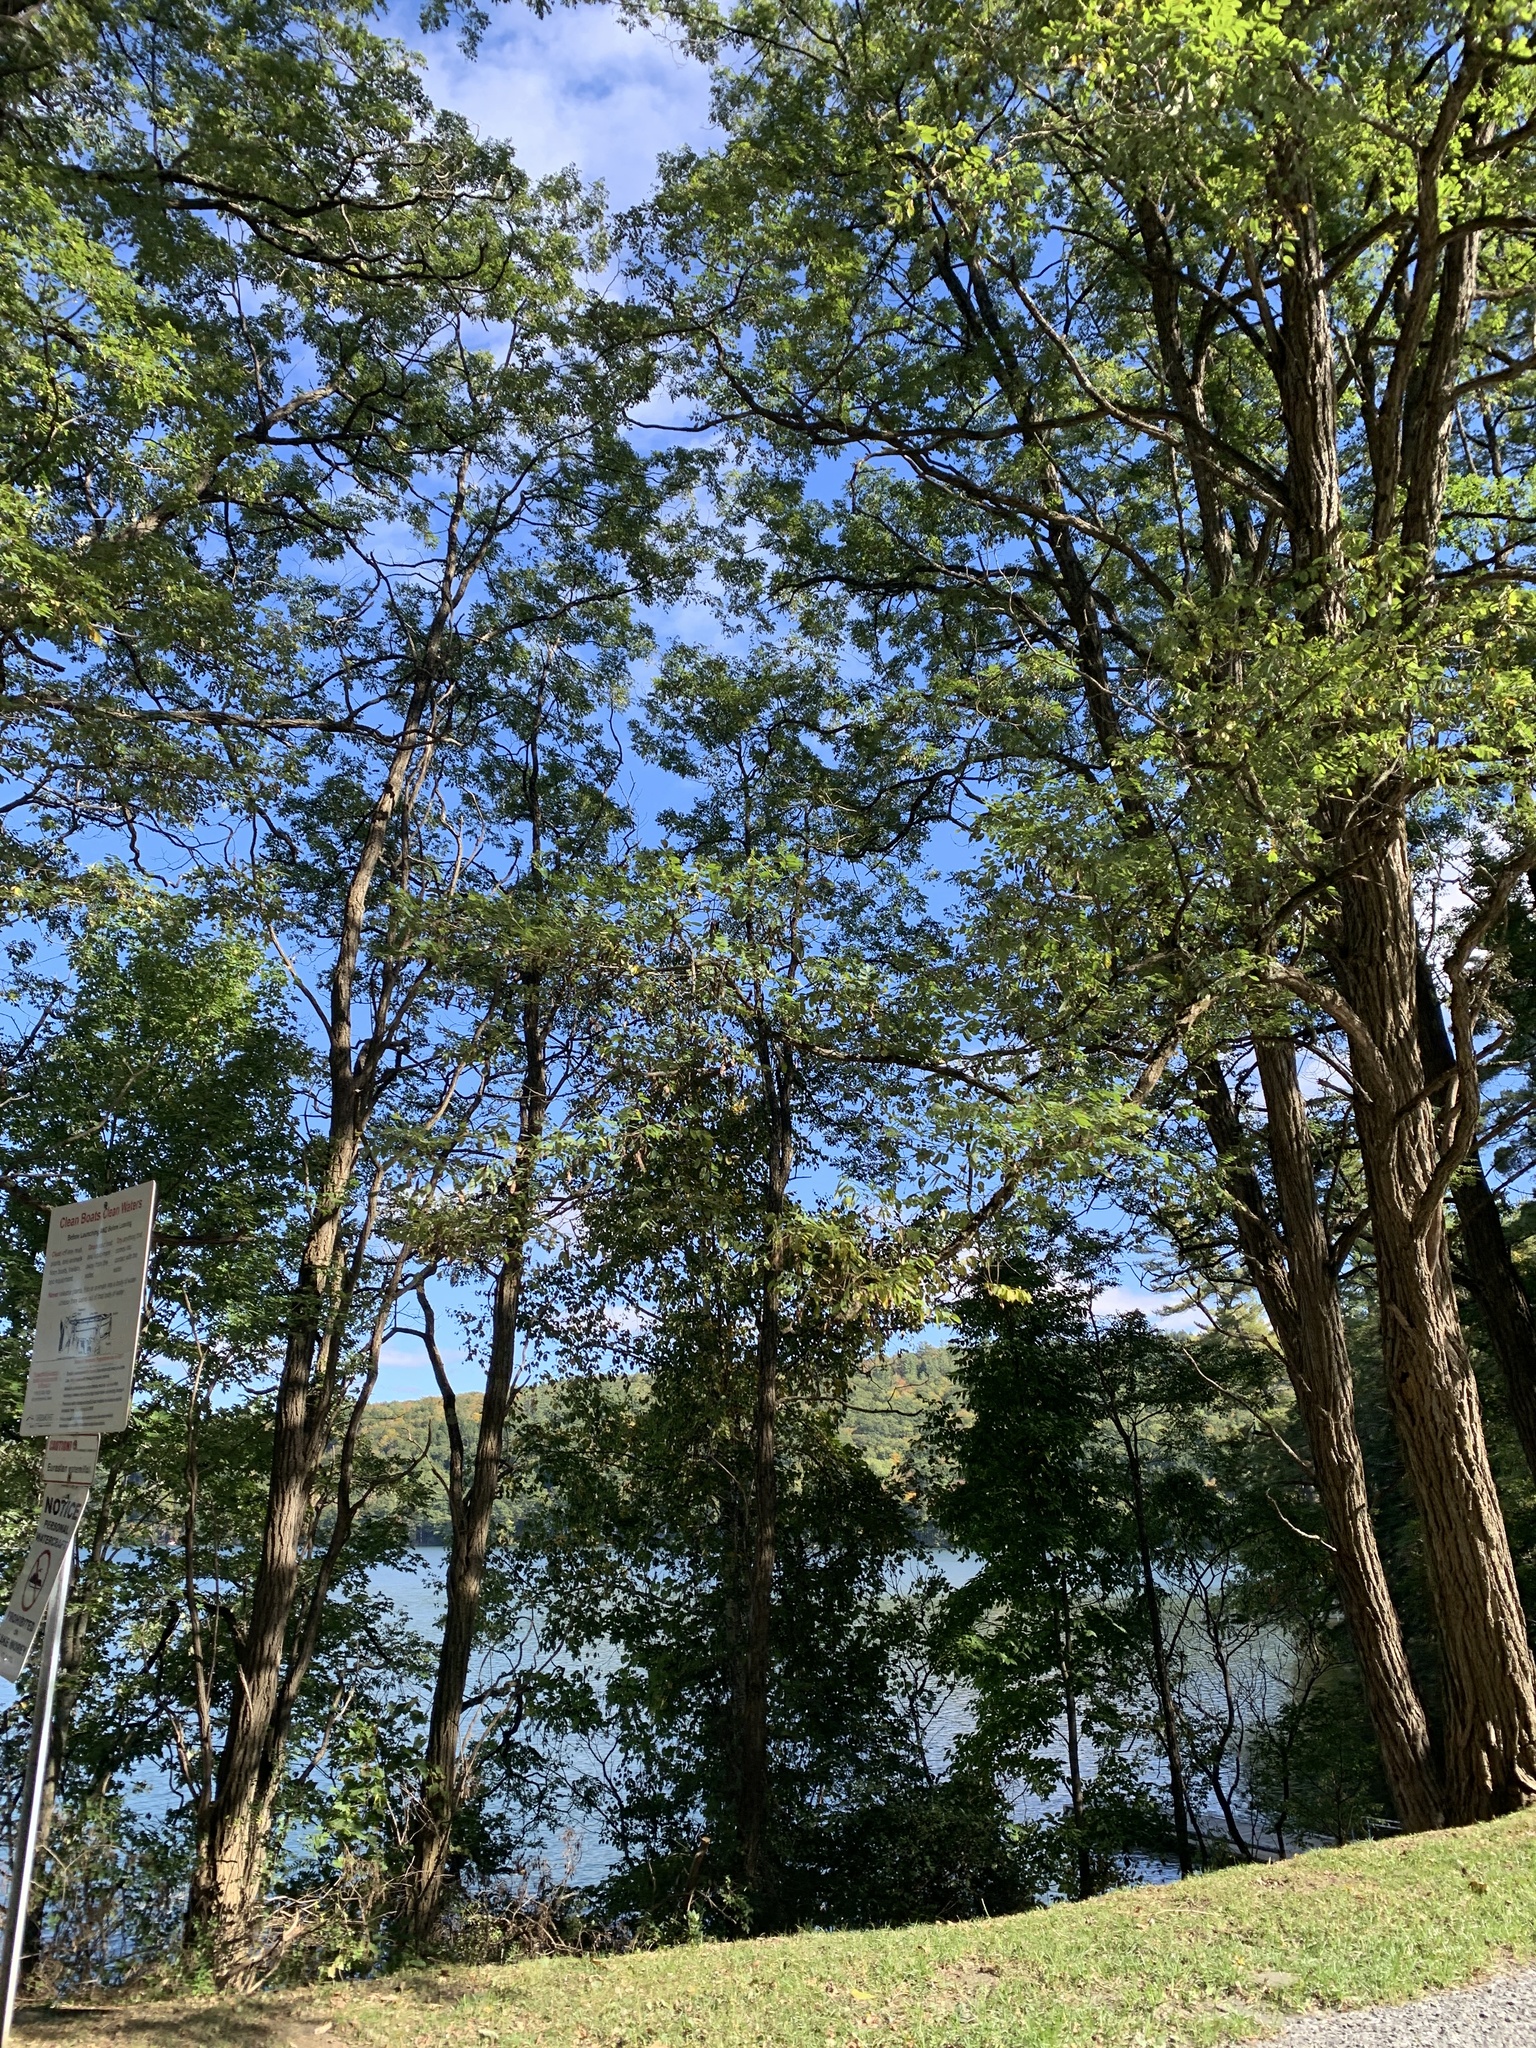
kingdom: Plantae
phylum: Tracheophyta
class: Magnoliopsida
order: Fabales
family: Fabaceae
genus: Robinia
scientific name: Robinia pseudoacacia
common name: Black locust
